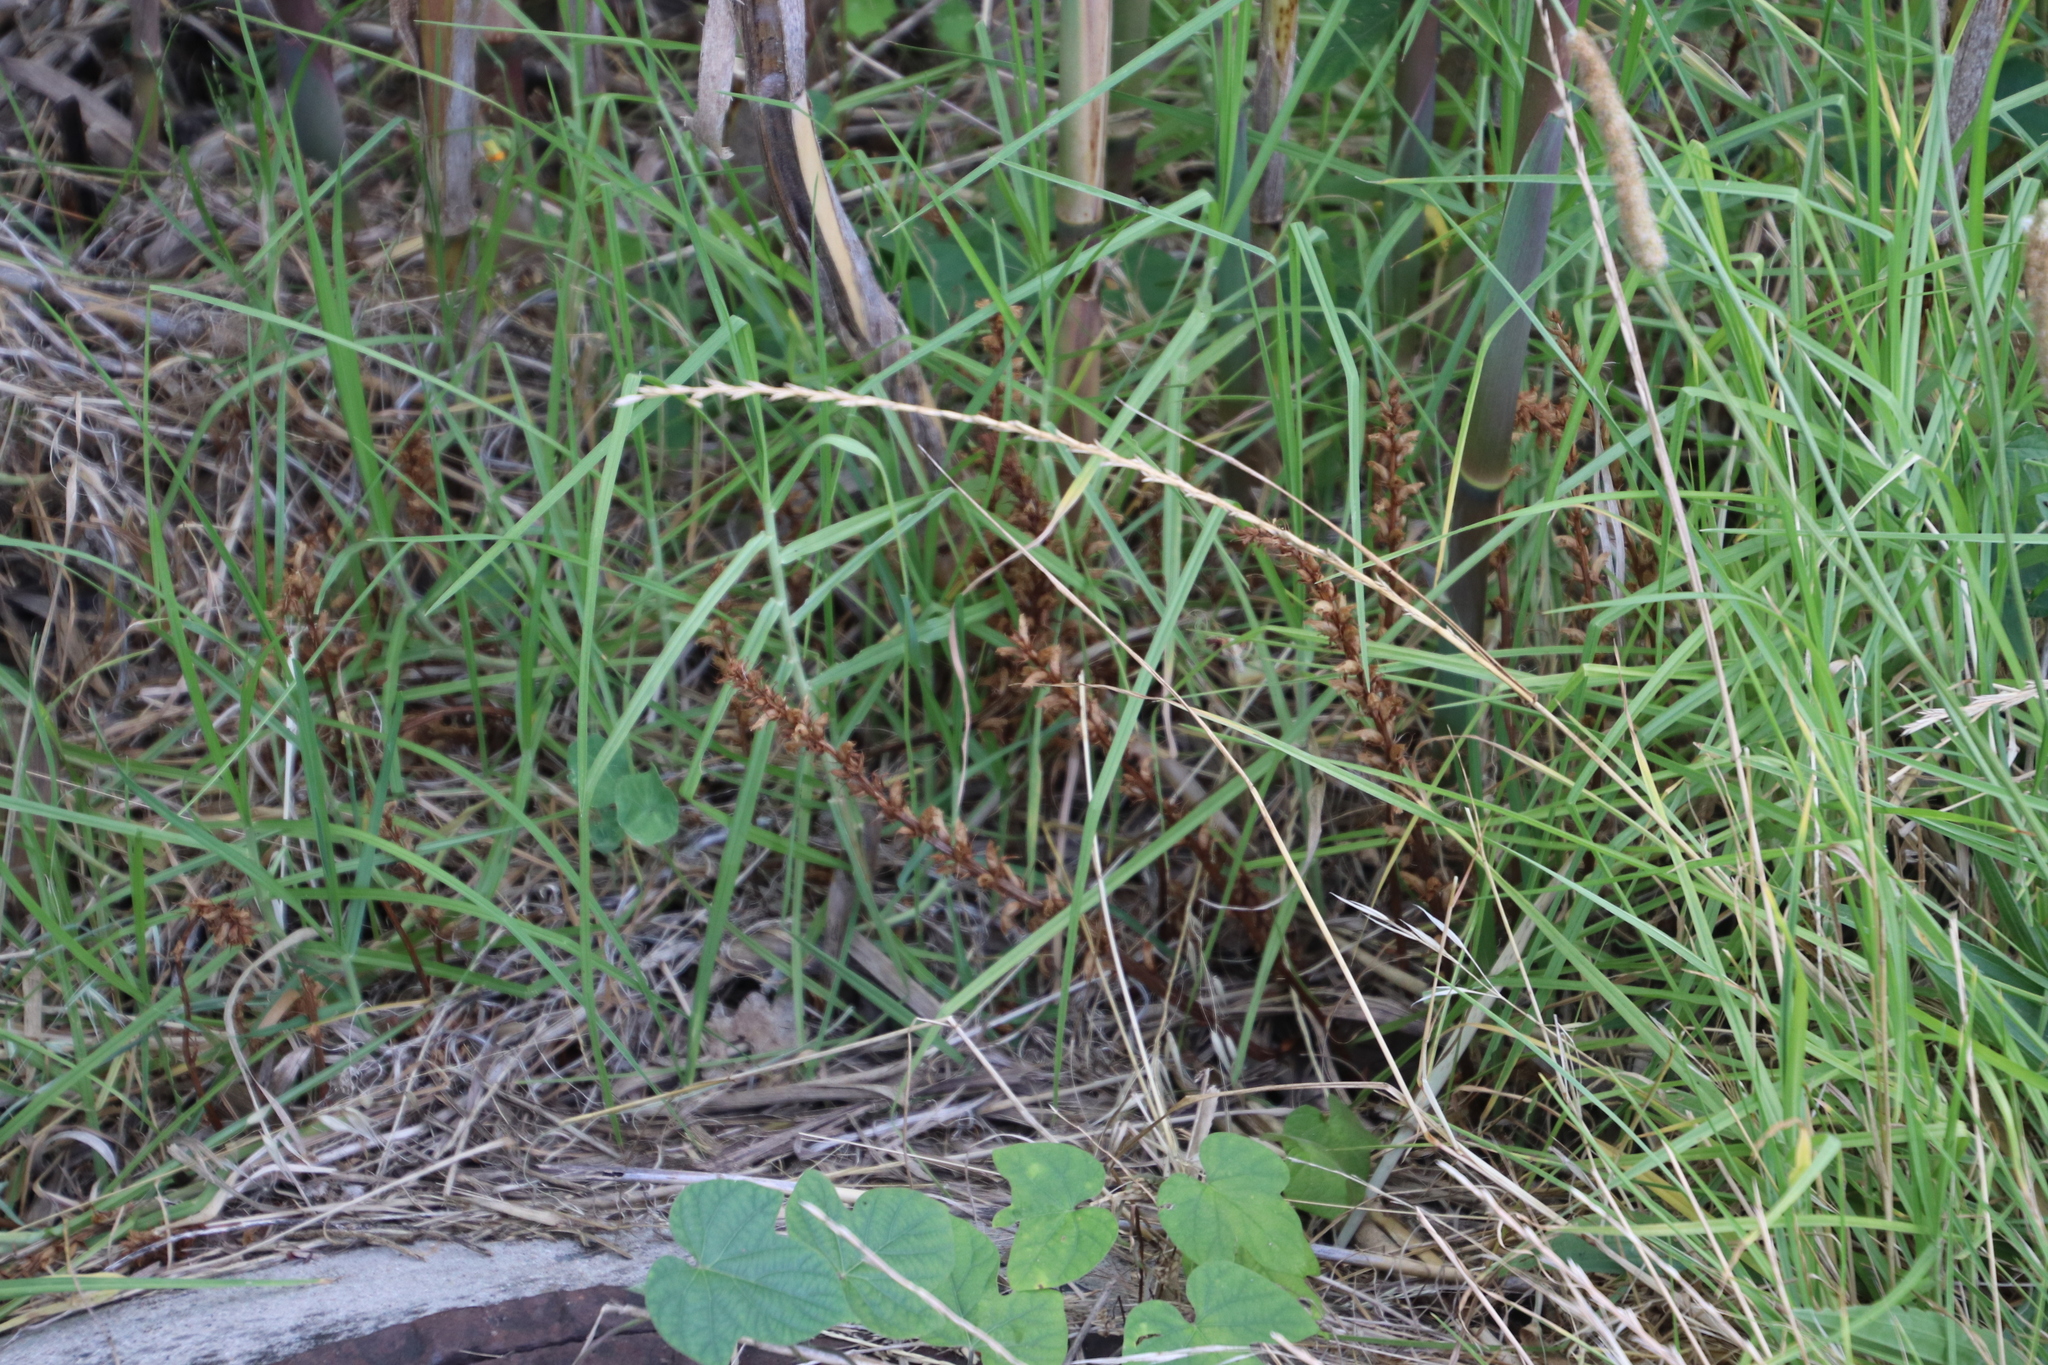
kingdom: Plantae
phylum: Tracheophyta
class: Magnoliopsida
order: Lamiales
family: Orobanchaceae
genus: Orobanche
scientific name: Orobanche minor
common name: Common broomrape
